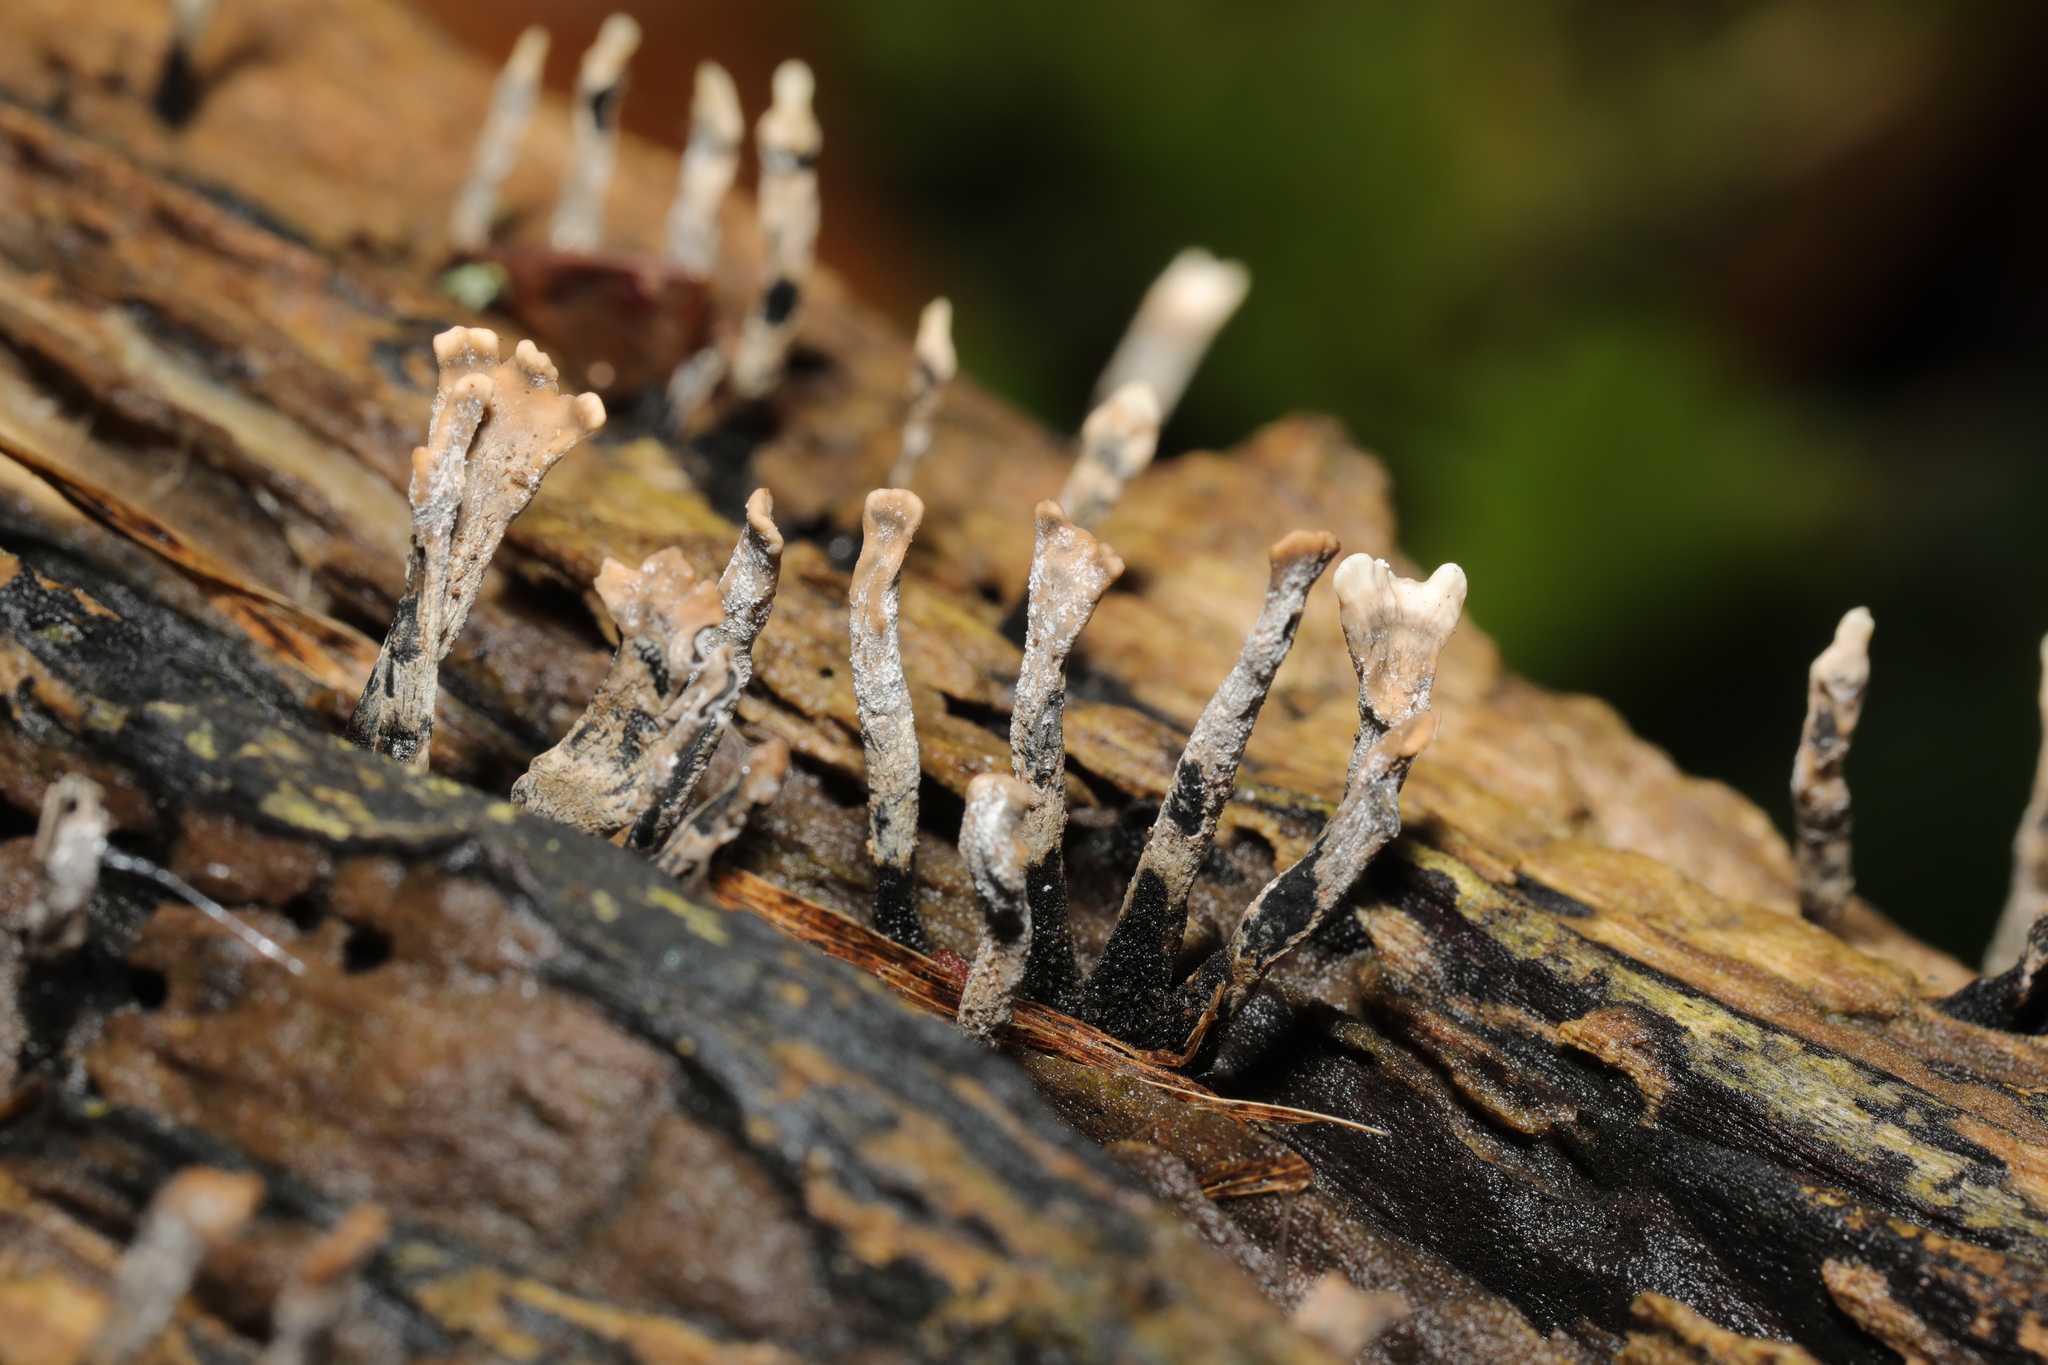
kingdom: Fungi
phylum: Ascomycota
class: Sordariomycetes
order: Xylariales
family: Xylariaceae
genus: Xylaria
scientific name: Xylaria hypoxylon
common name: Candle-snuff fungus
